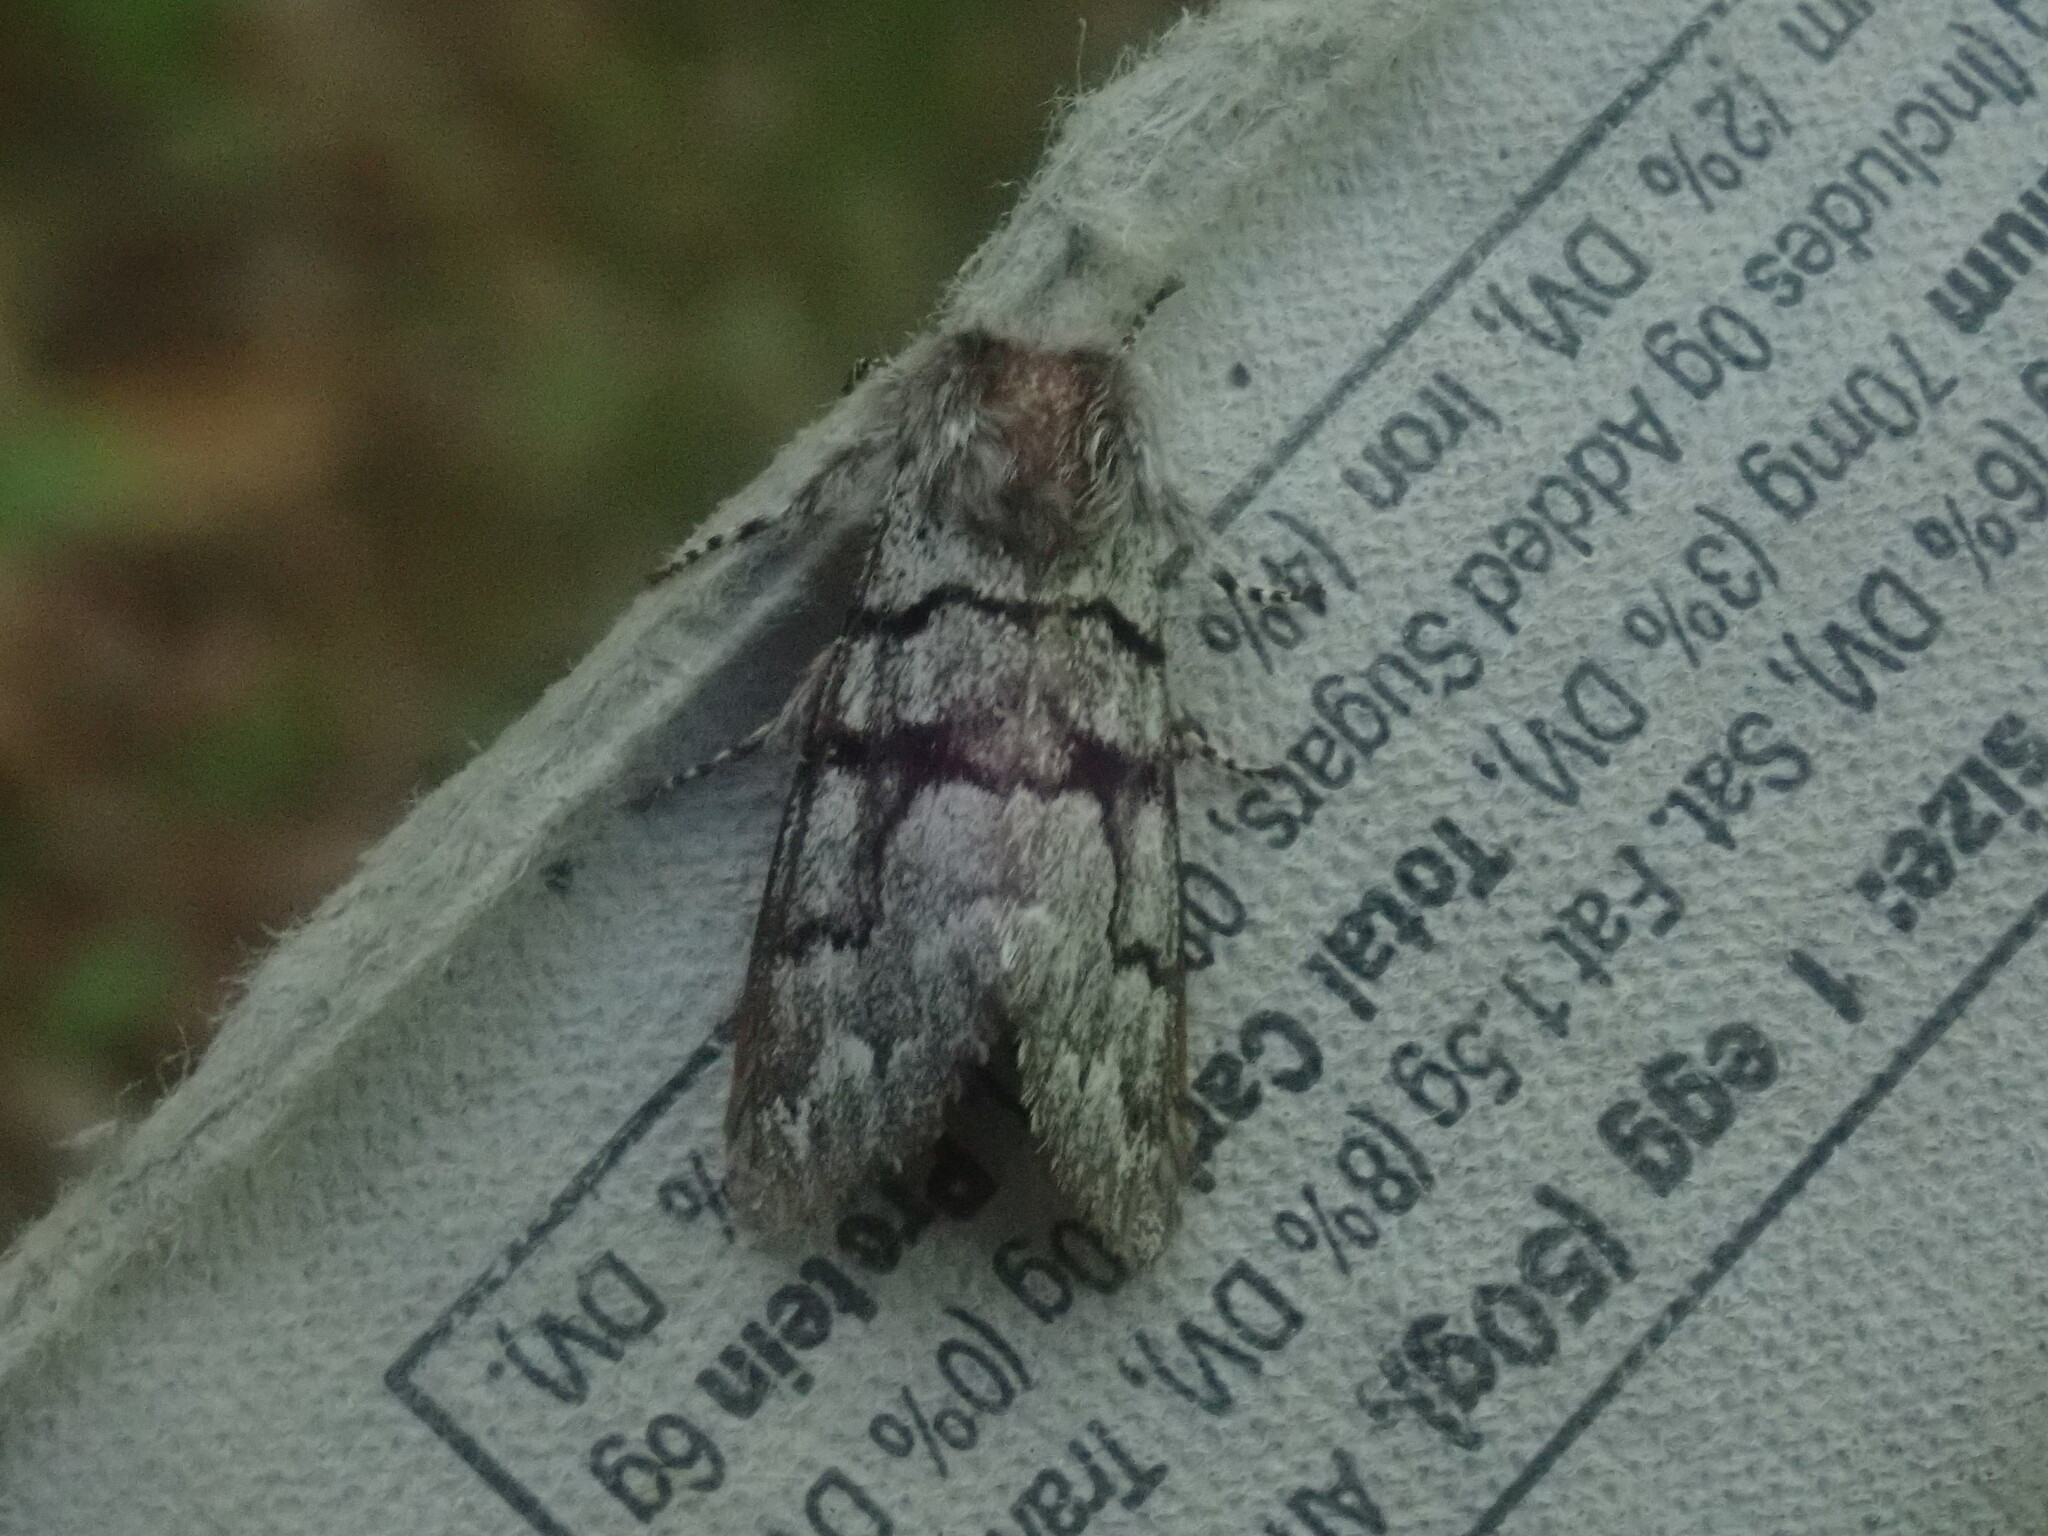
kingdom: Animalia
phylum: Arthropoda
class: Insecta
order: Lepidoptera
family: Noctuidae
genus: Panthea
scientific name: Panthea furcilla
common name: Eastern panthea moth
